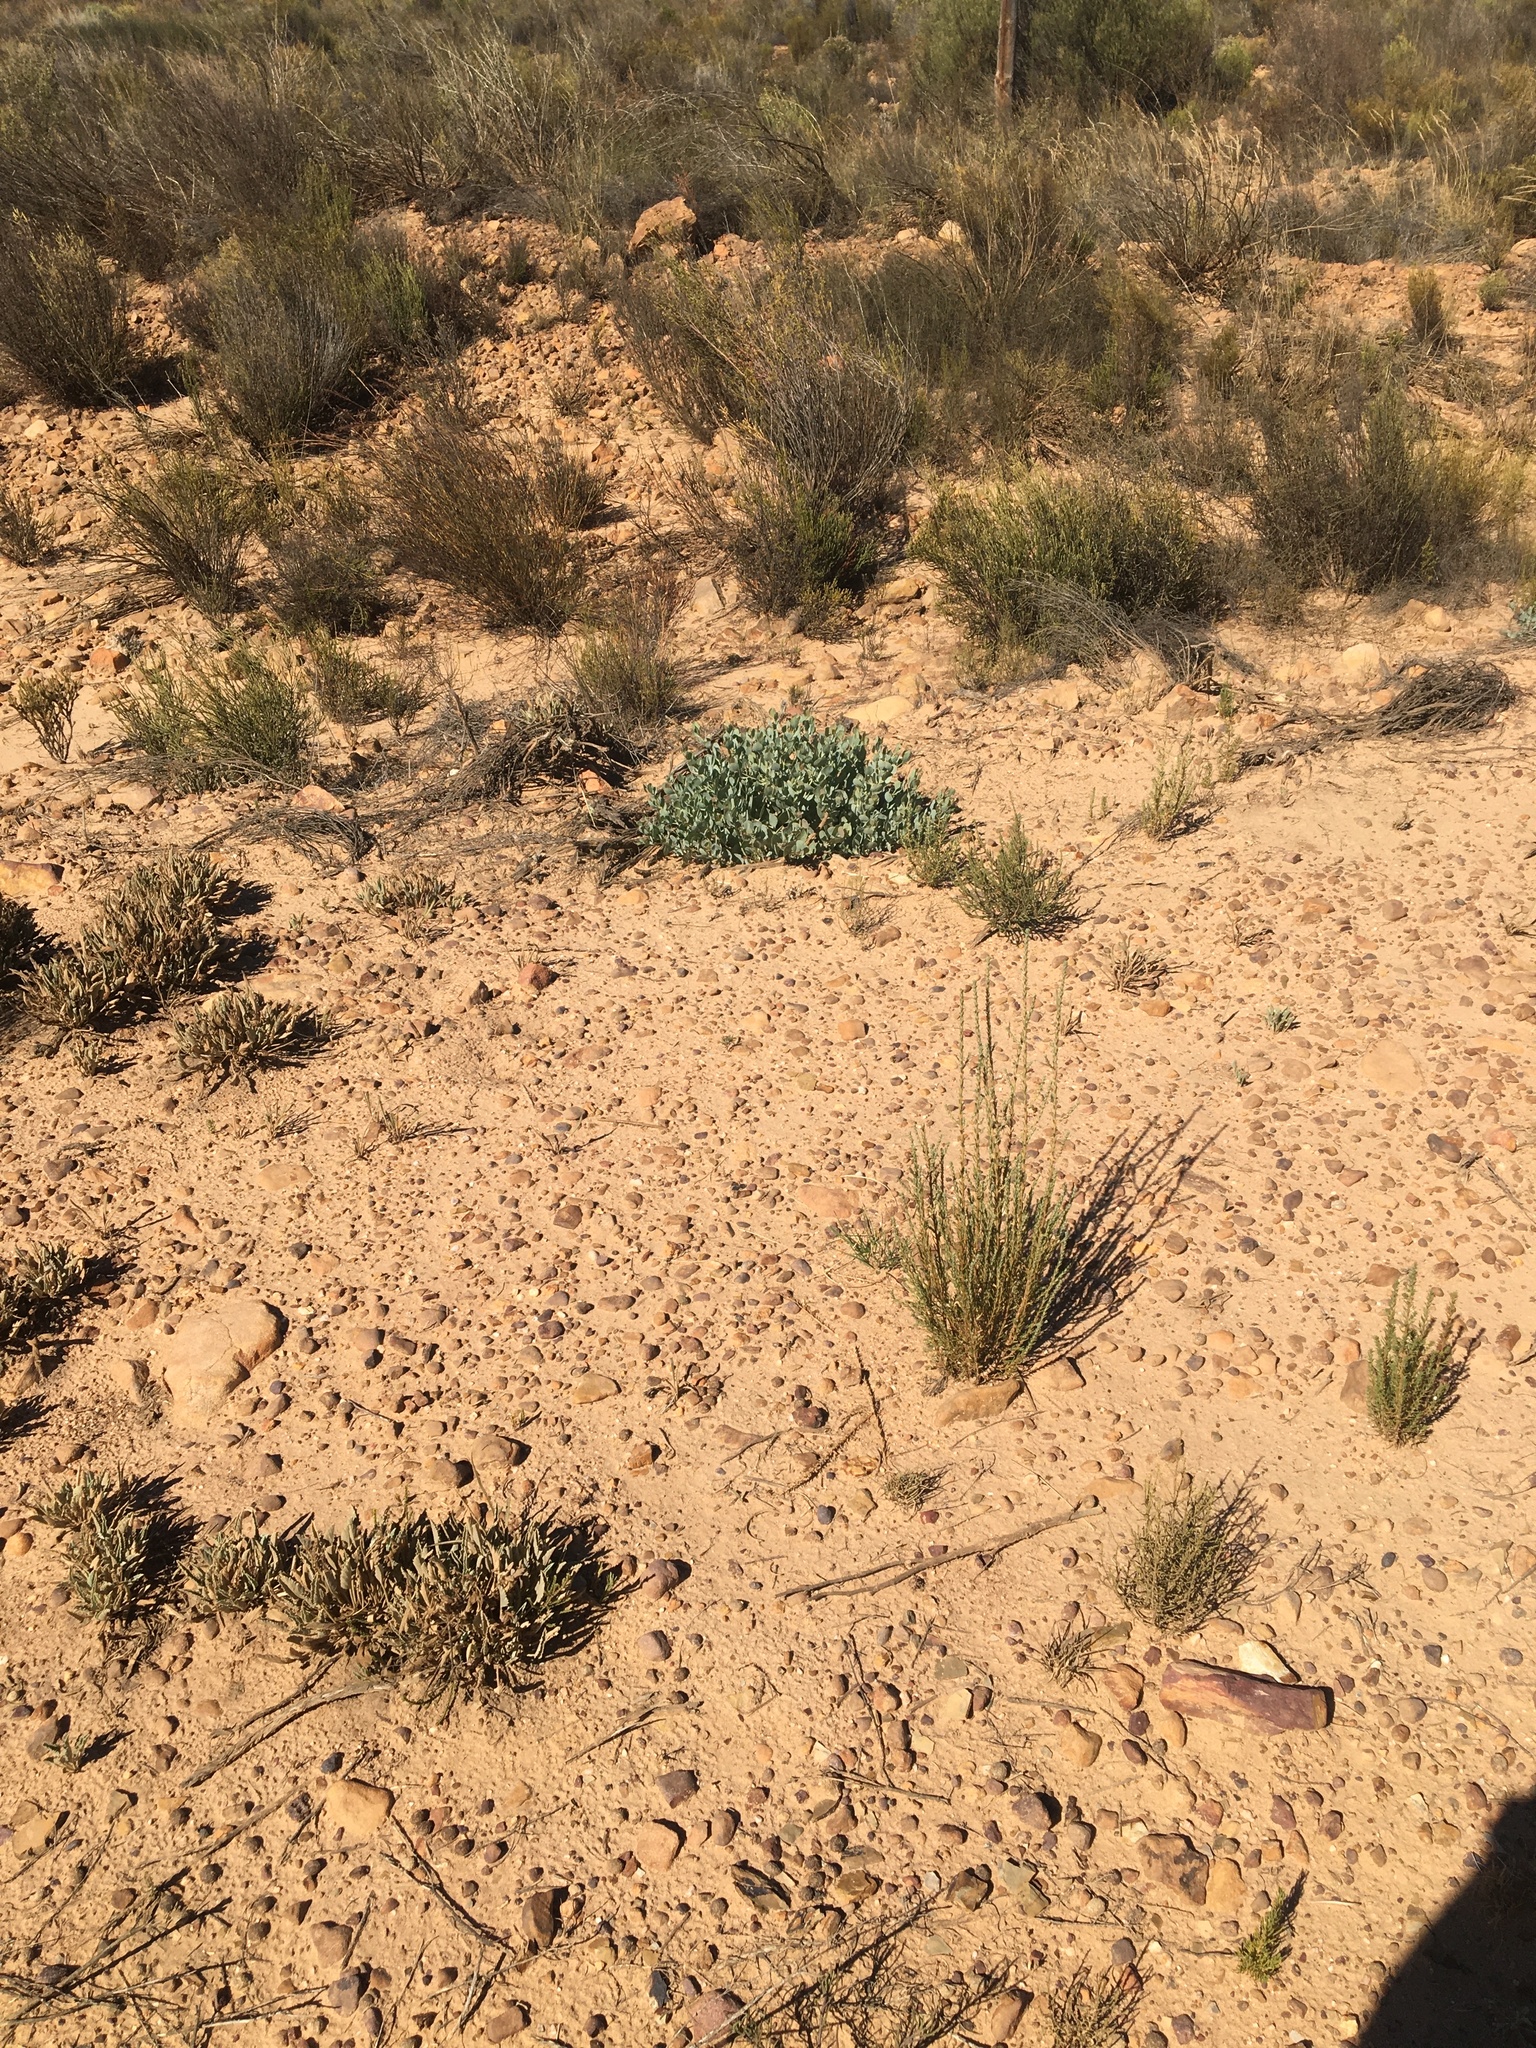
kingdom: Plantae
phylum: Tracheophyta
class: Magnoliopsida
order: Fabales
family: Fabaceae
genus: Rafnia
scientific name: Rafnia acuminata
